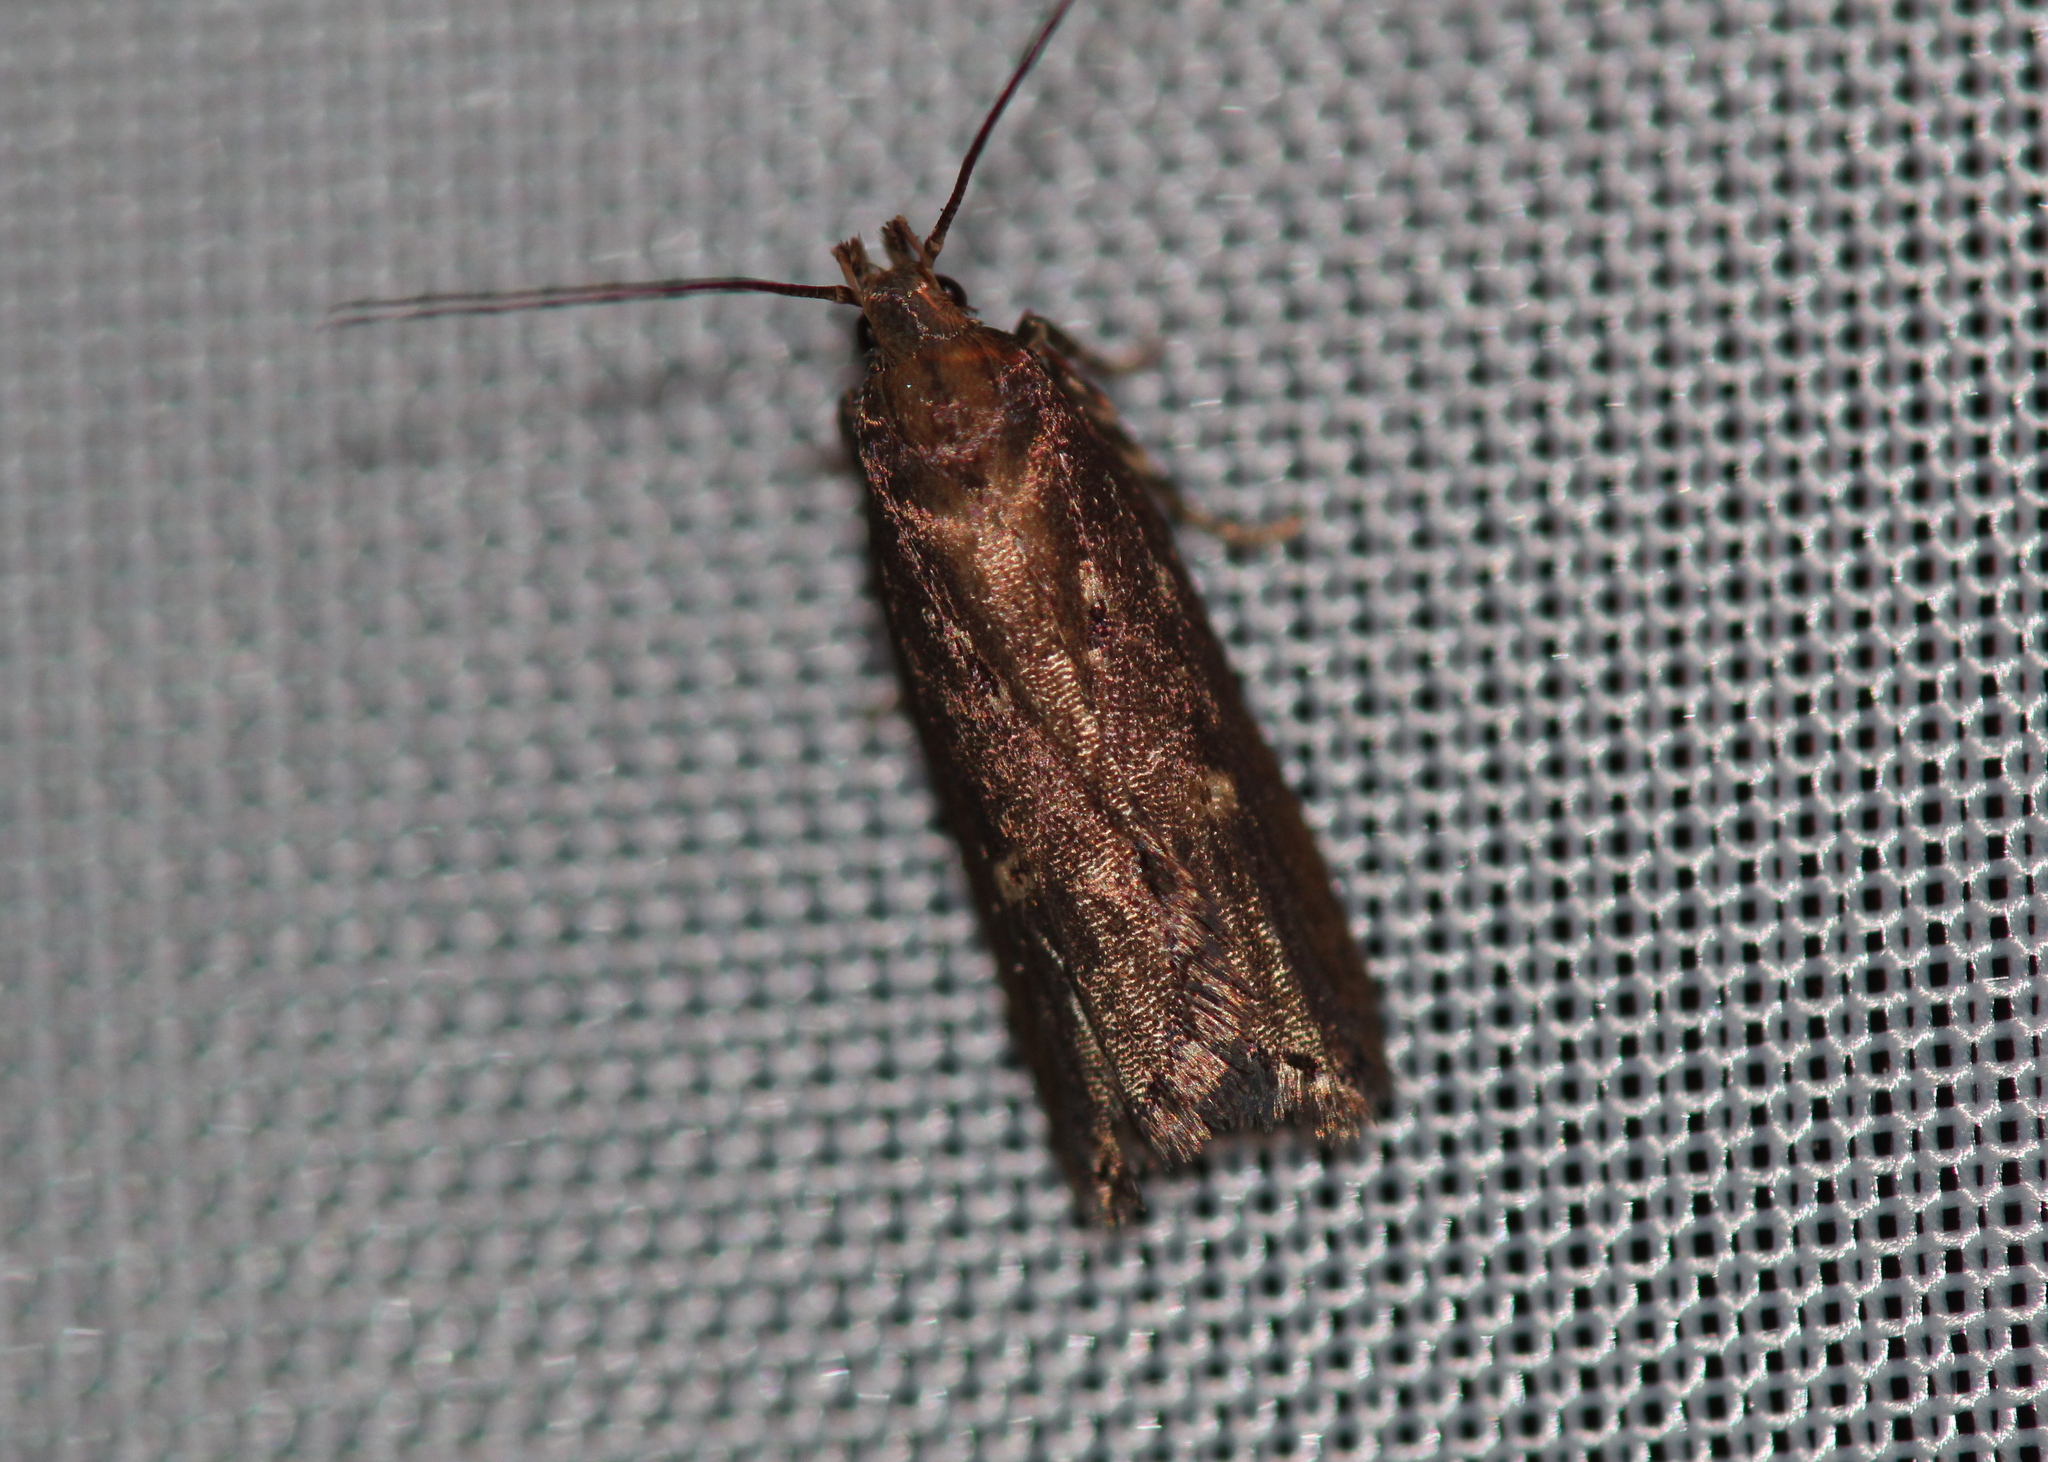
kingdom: Animalia
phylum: Arthropoda
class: Insecta
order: Lepidoptera
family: Gelechiidae
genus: Chionodes
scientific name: Chionodes discoocellella
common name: Eye-ringed chionodes moth
